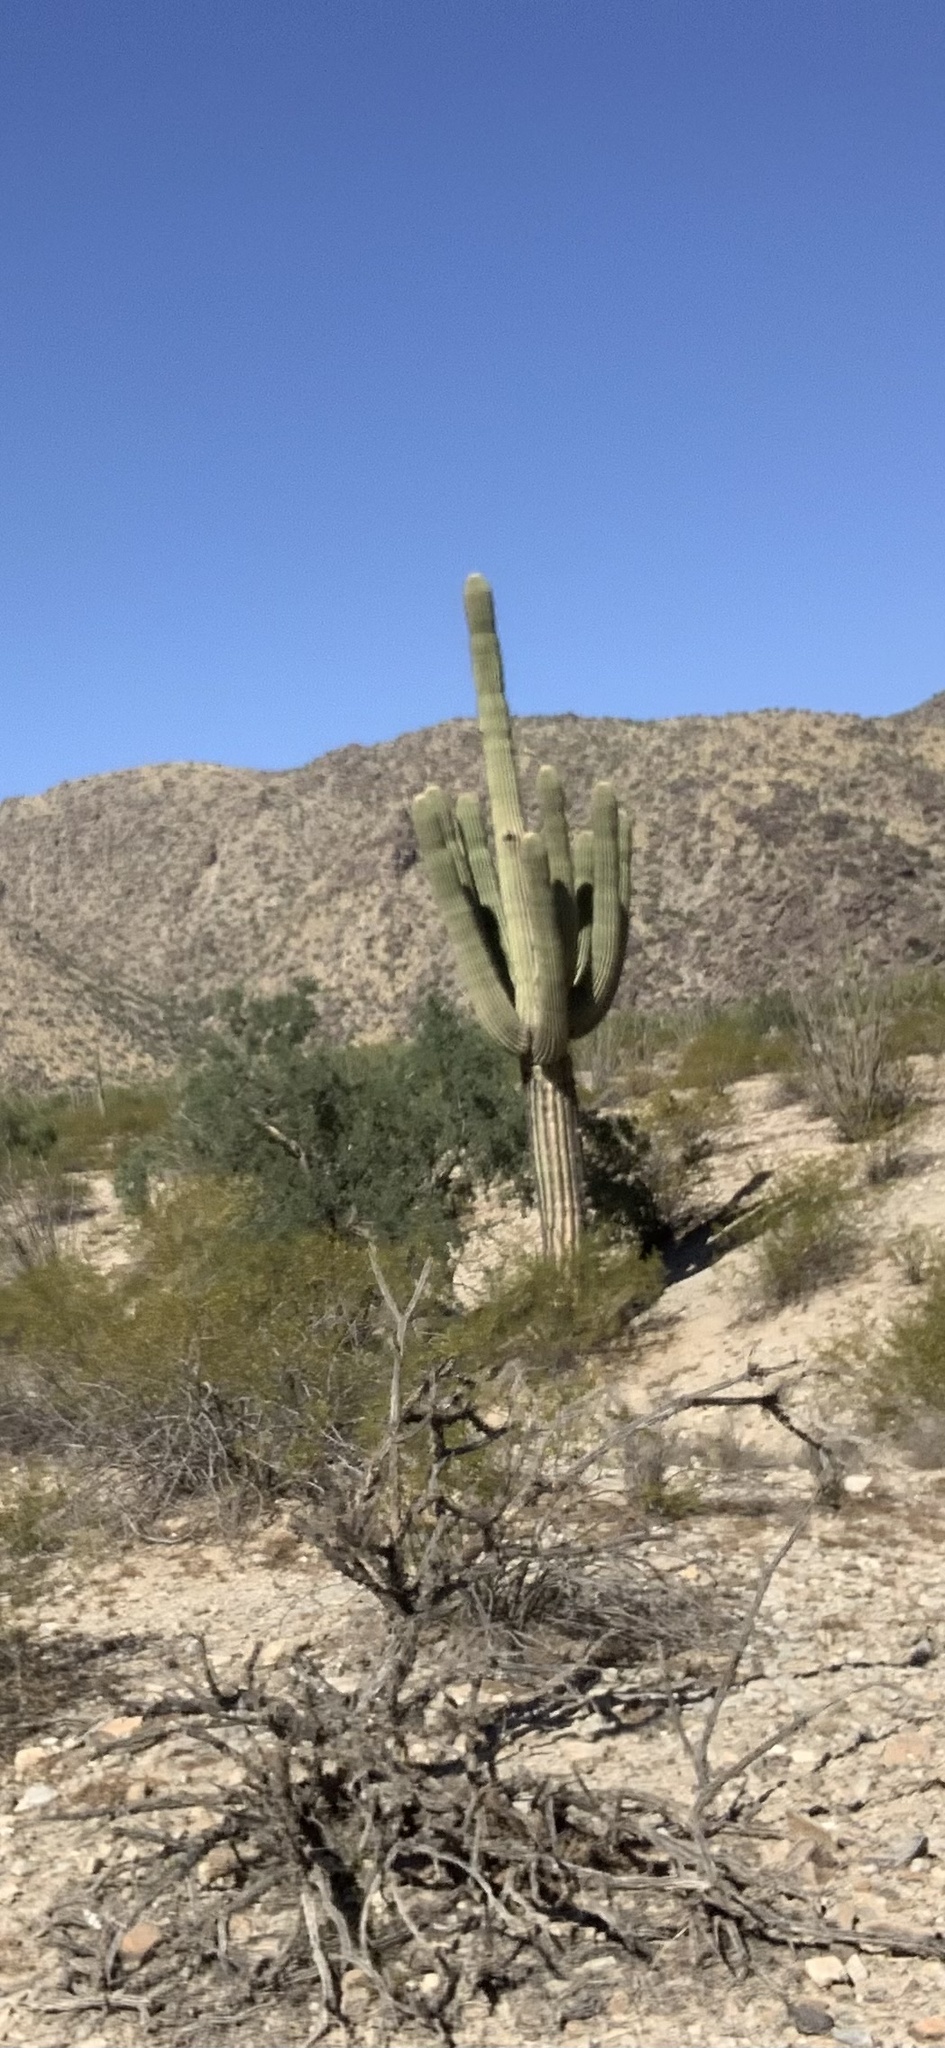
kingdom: Plantae
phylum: Tracheophyta
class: Magnoliopsida
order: Caryophyllales
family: Cactaceae
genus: Carnegiea
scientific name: Carnegiea gigantea
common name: Saguaro
